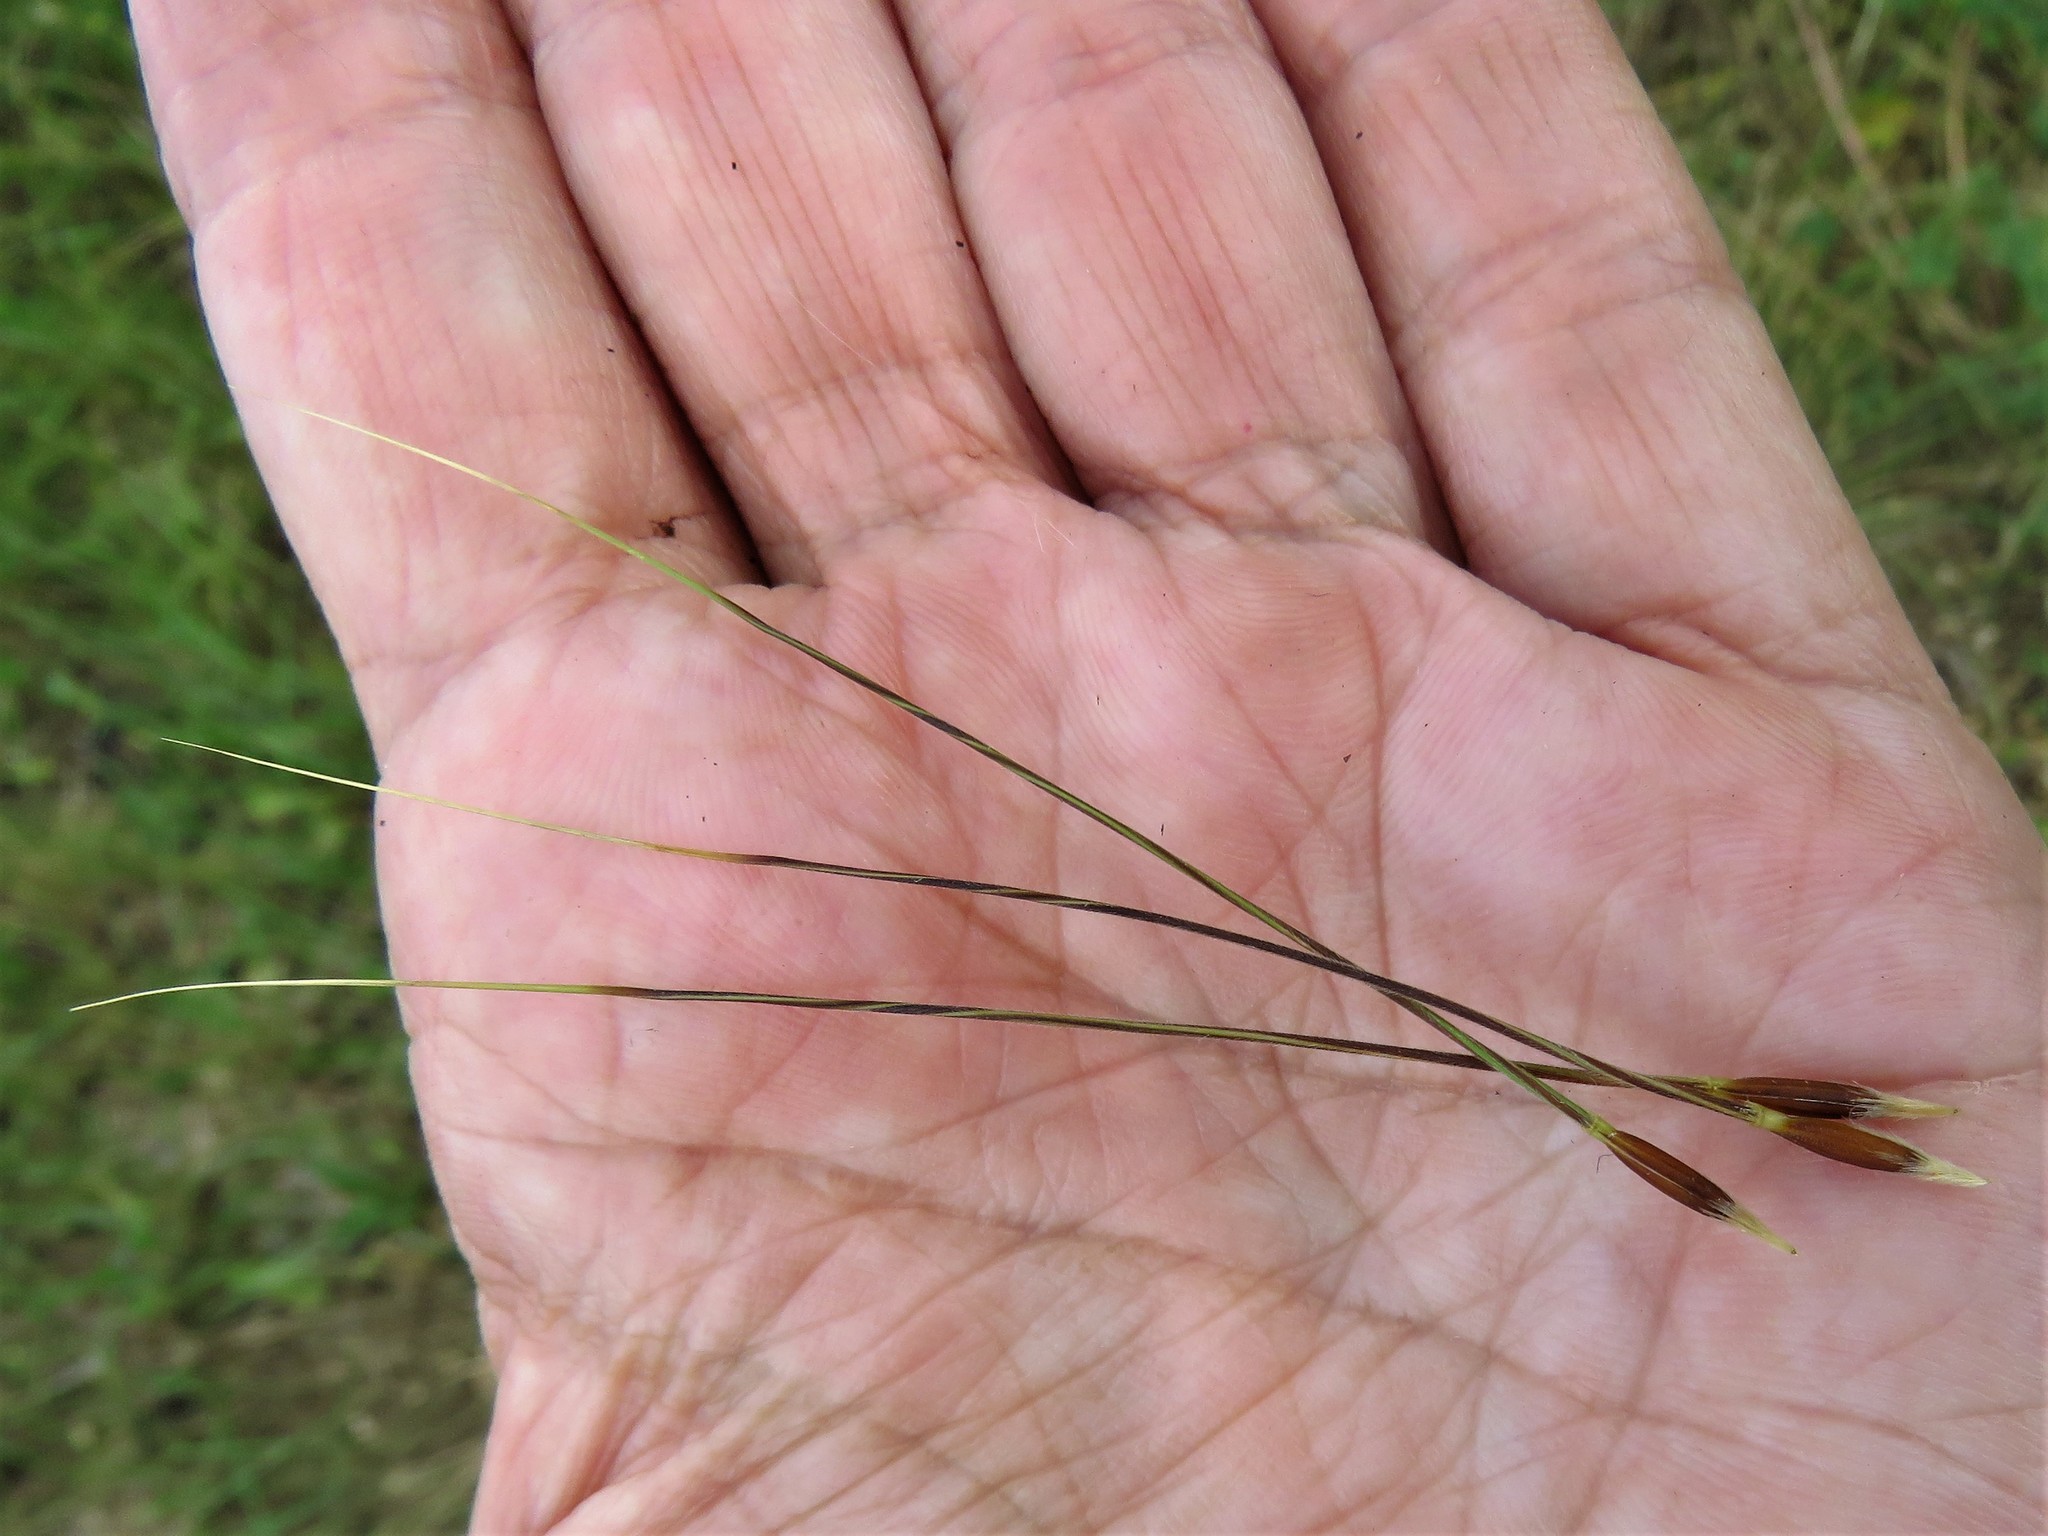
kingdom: Plantae
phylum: Tracheophyta
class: Liliopsida
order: Poales
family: Poaceae
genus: Nassella
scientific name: Nassella leucotricha
